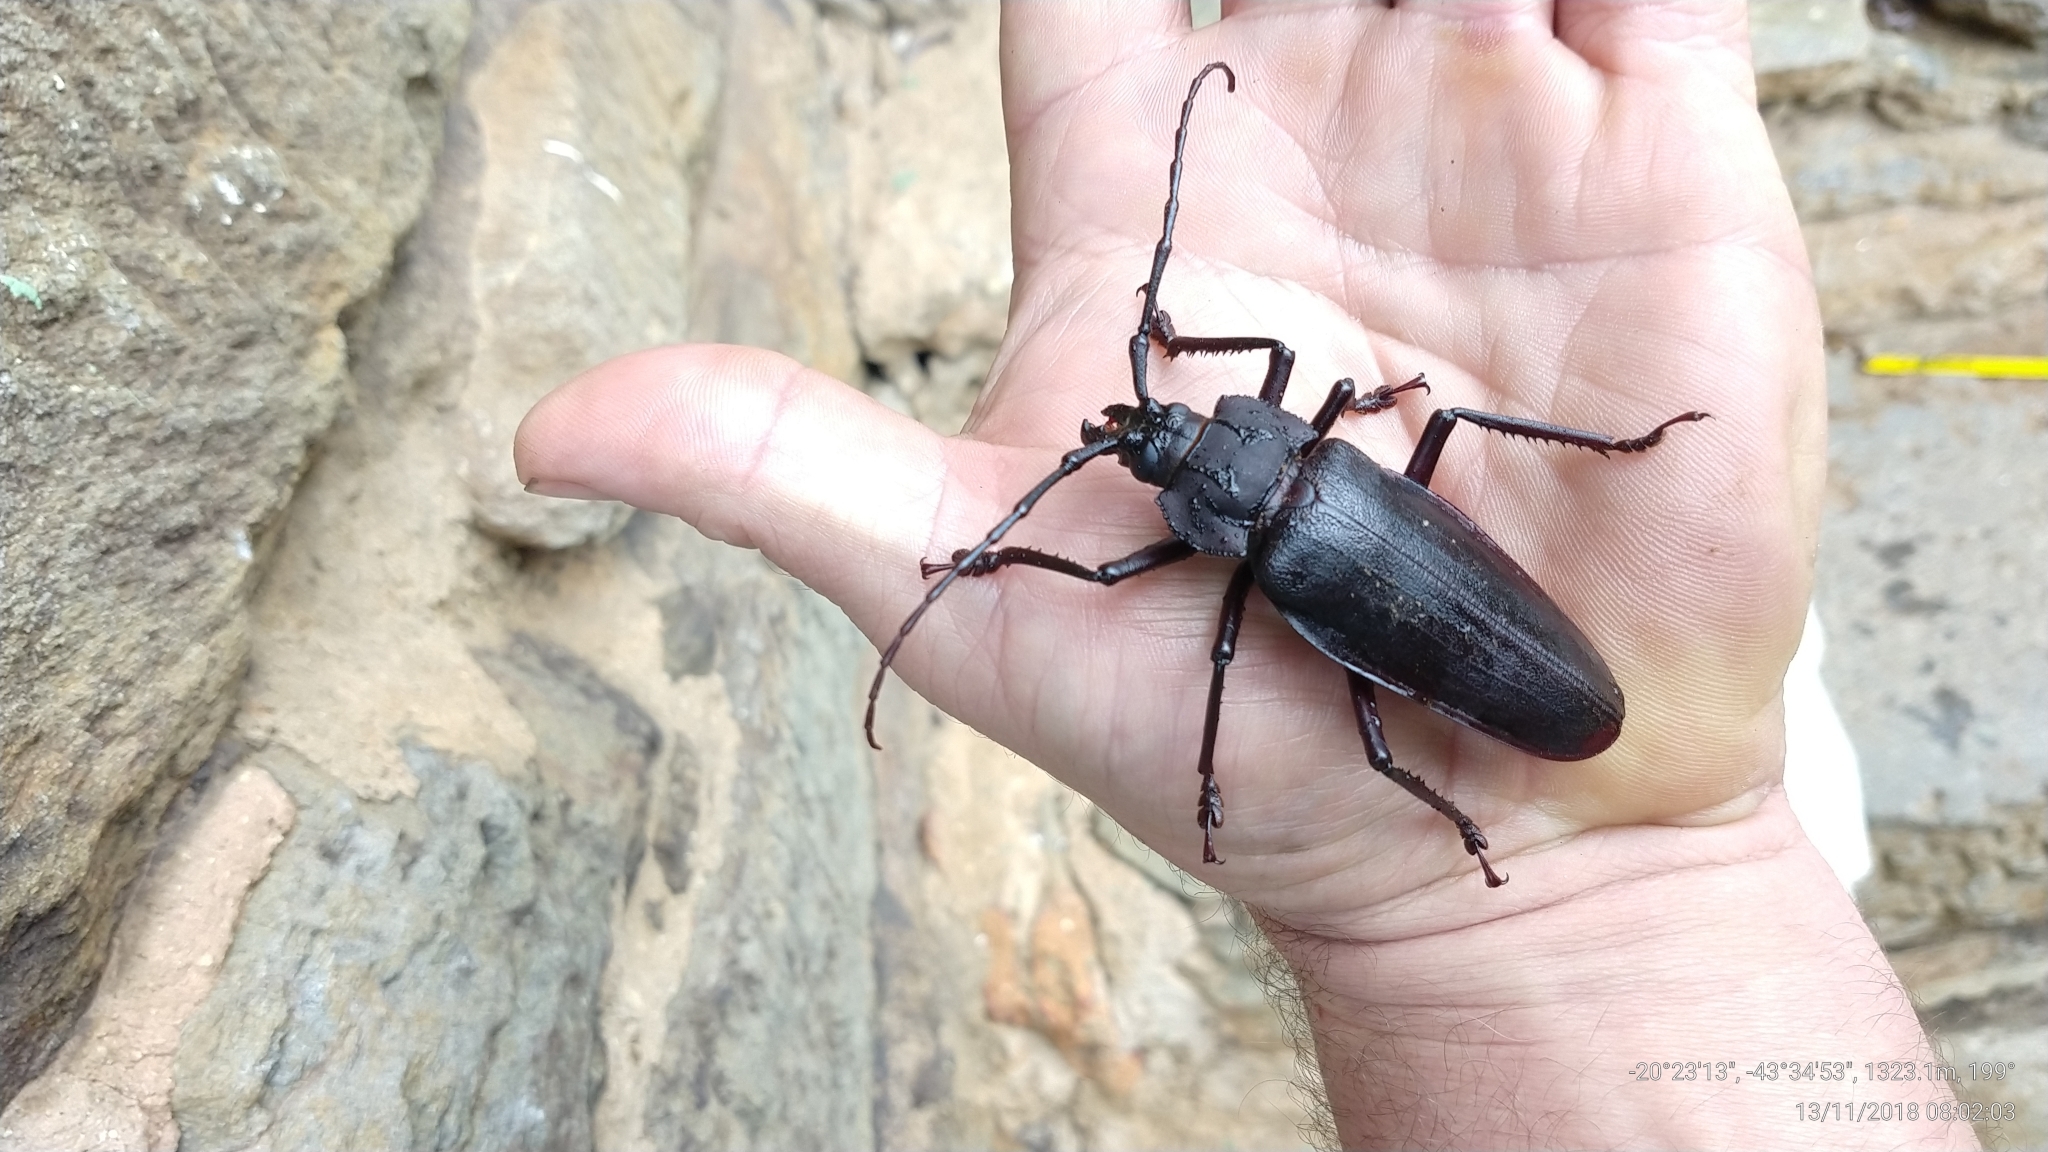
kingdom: Animalia
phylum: Arthropoda
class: Insecta
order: Coleoptera
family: Cerambycidae
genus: Ctenoscelis
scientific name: Ctenoscelis acanthopus
